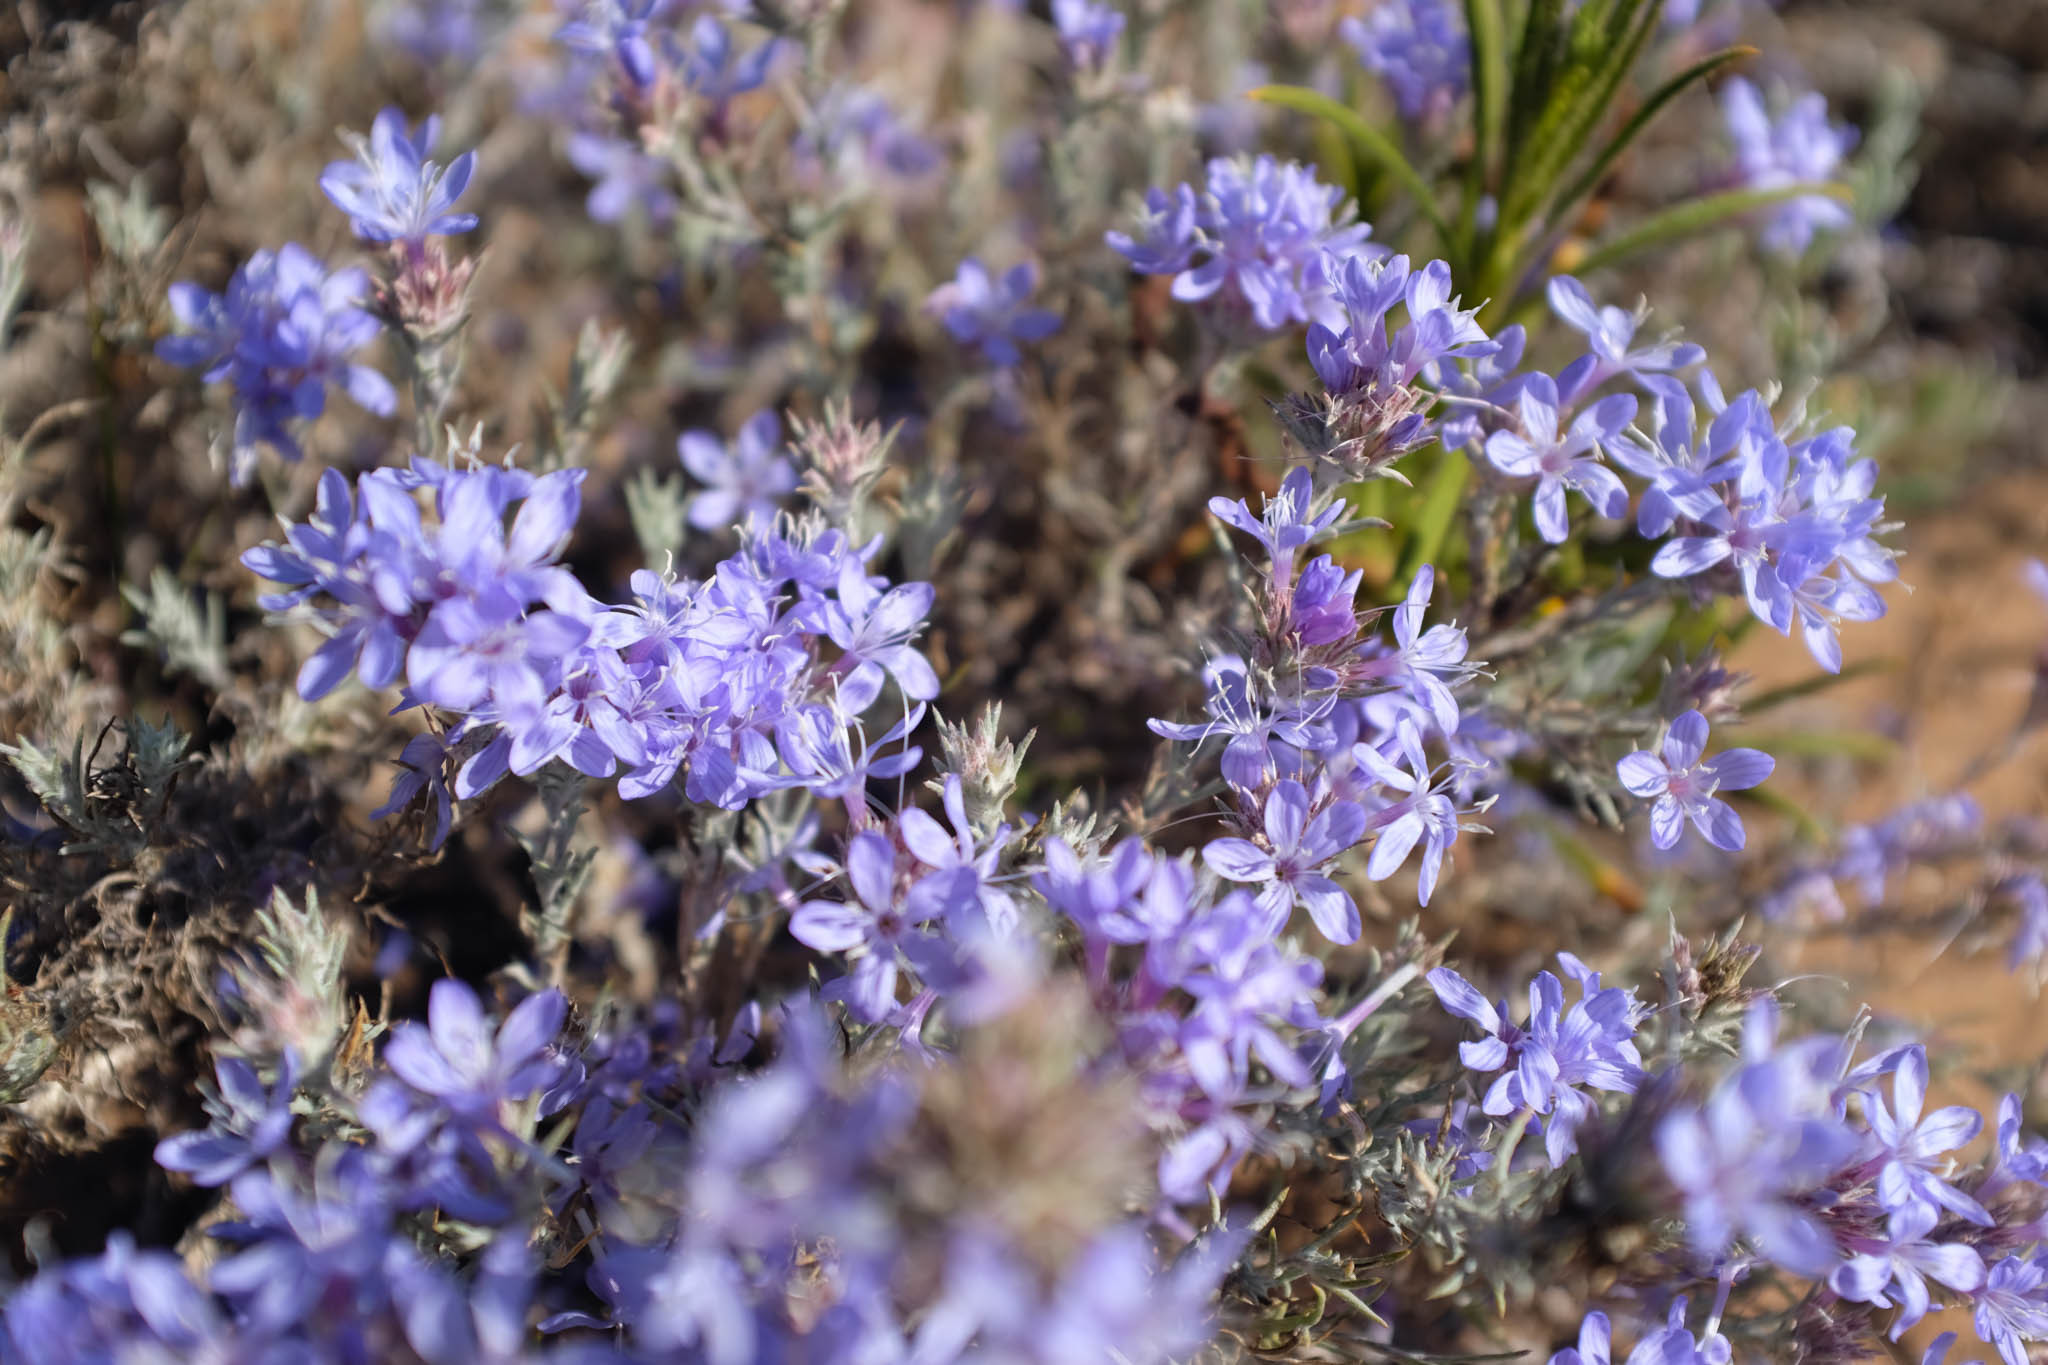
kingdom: Plantae
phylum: Tracheophyta
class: Magnoliopsida
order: Ericales
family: Polemoniaceae
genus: Eriastrum
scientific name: Eriastrum densifolium
